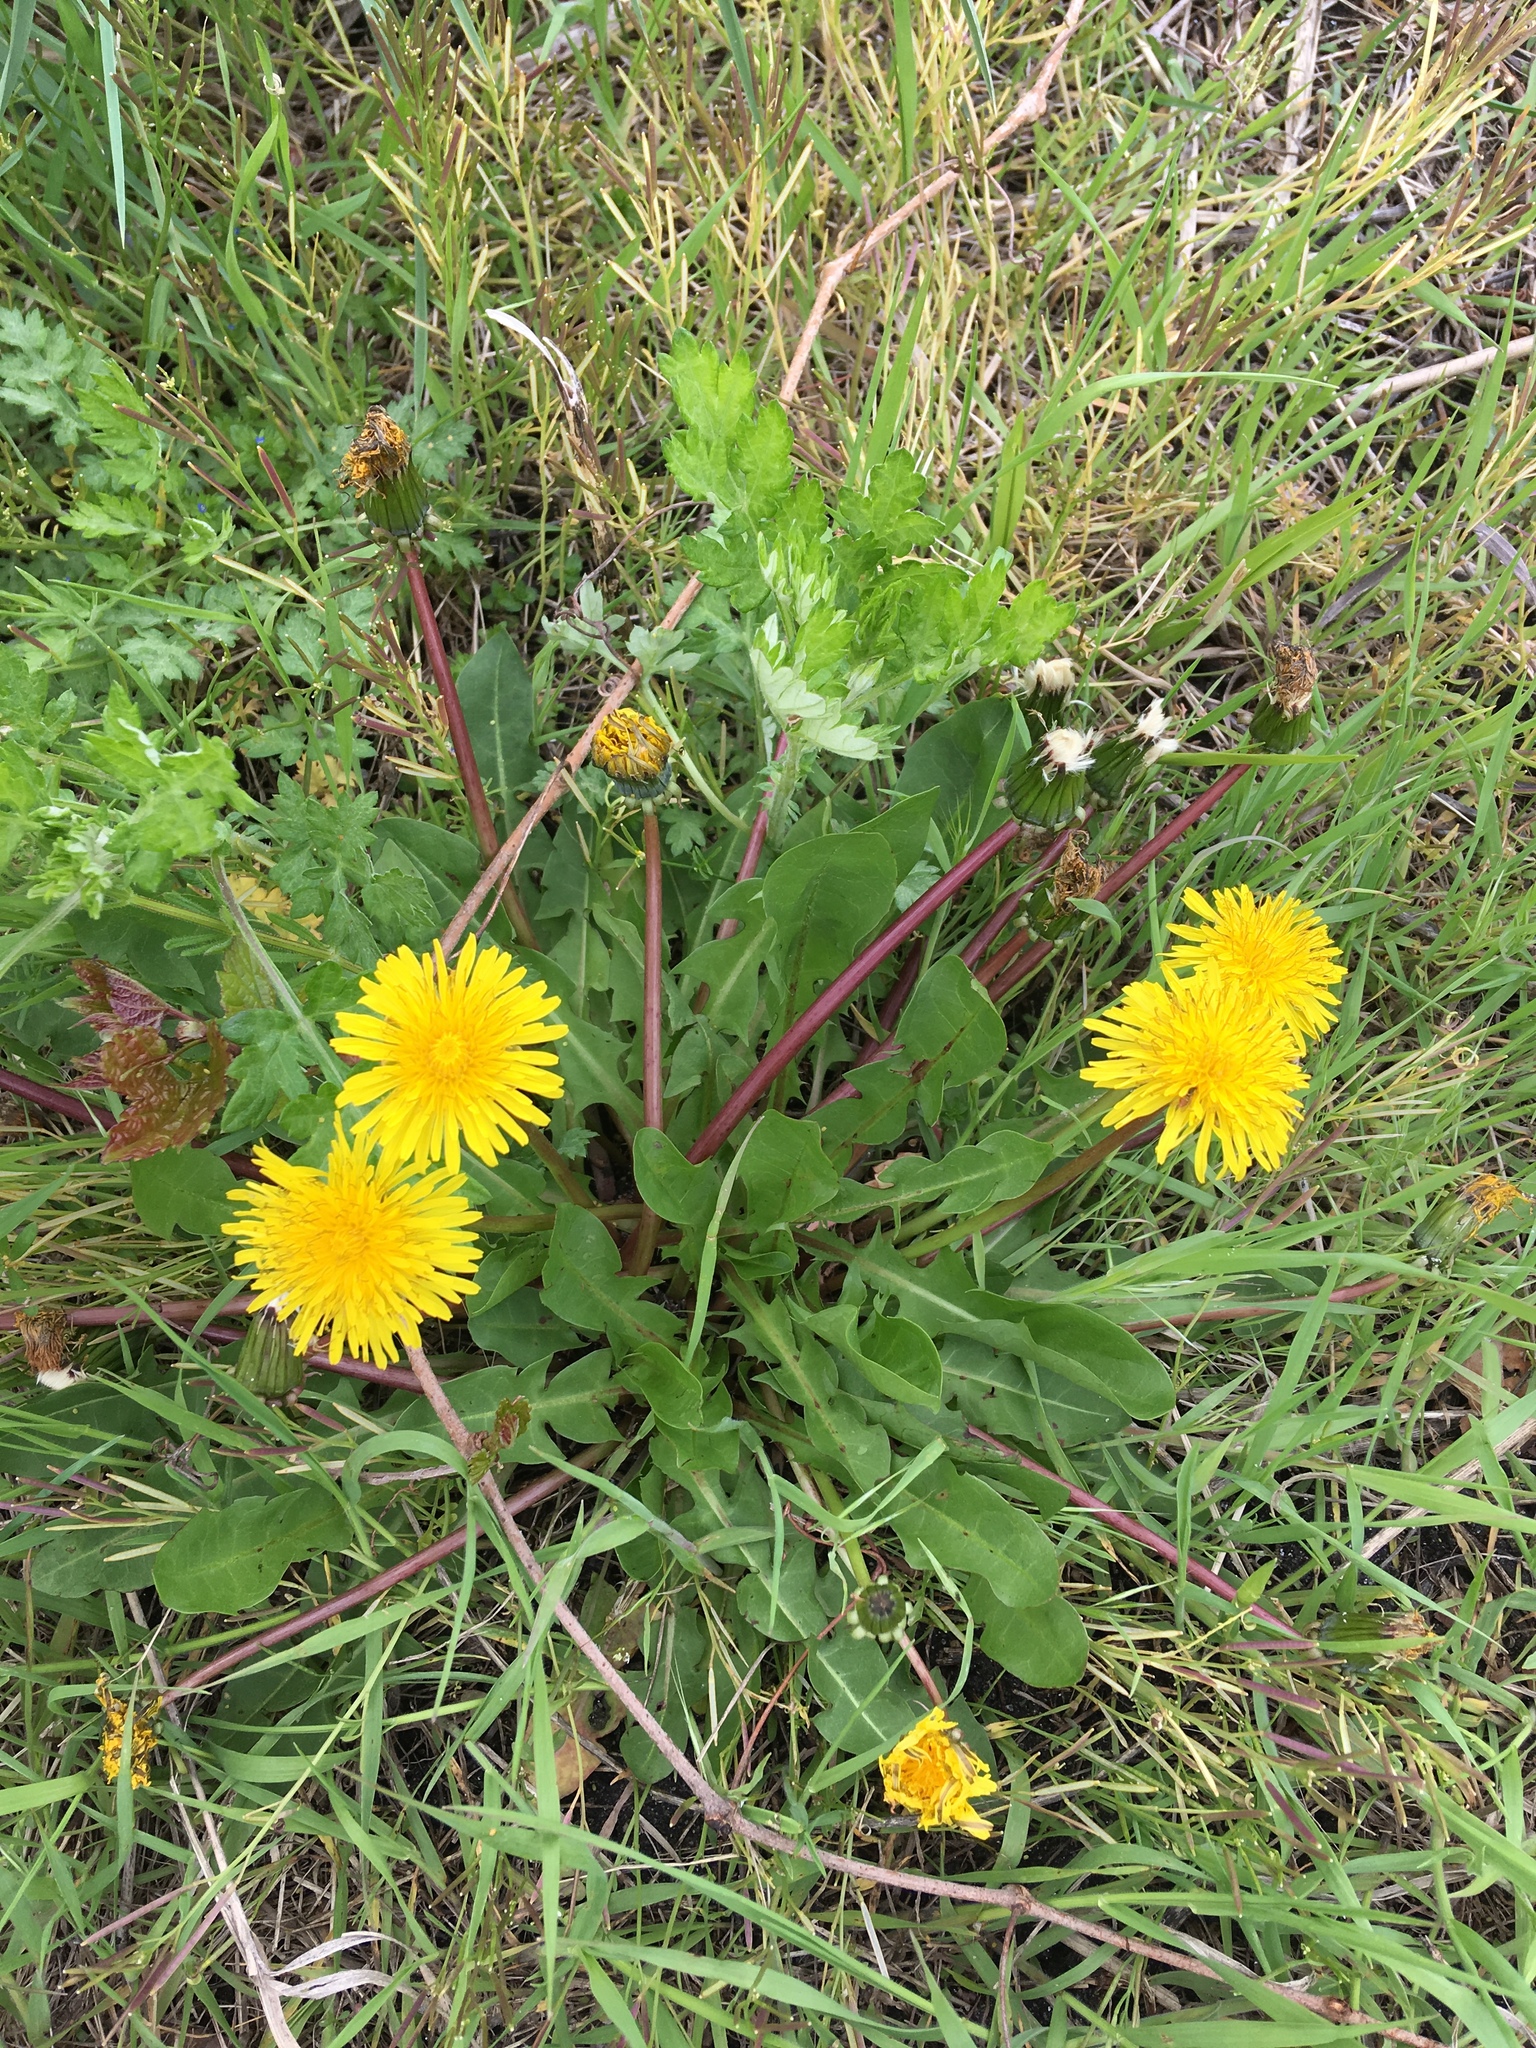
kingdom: Plantae
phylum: Tracheophyta
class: Magnoliopsida
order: Asterales
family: Asteraceae
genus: Taraxacum
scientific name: Taraxacum officinale
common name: Common dandelion
